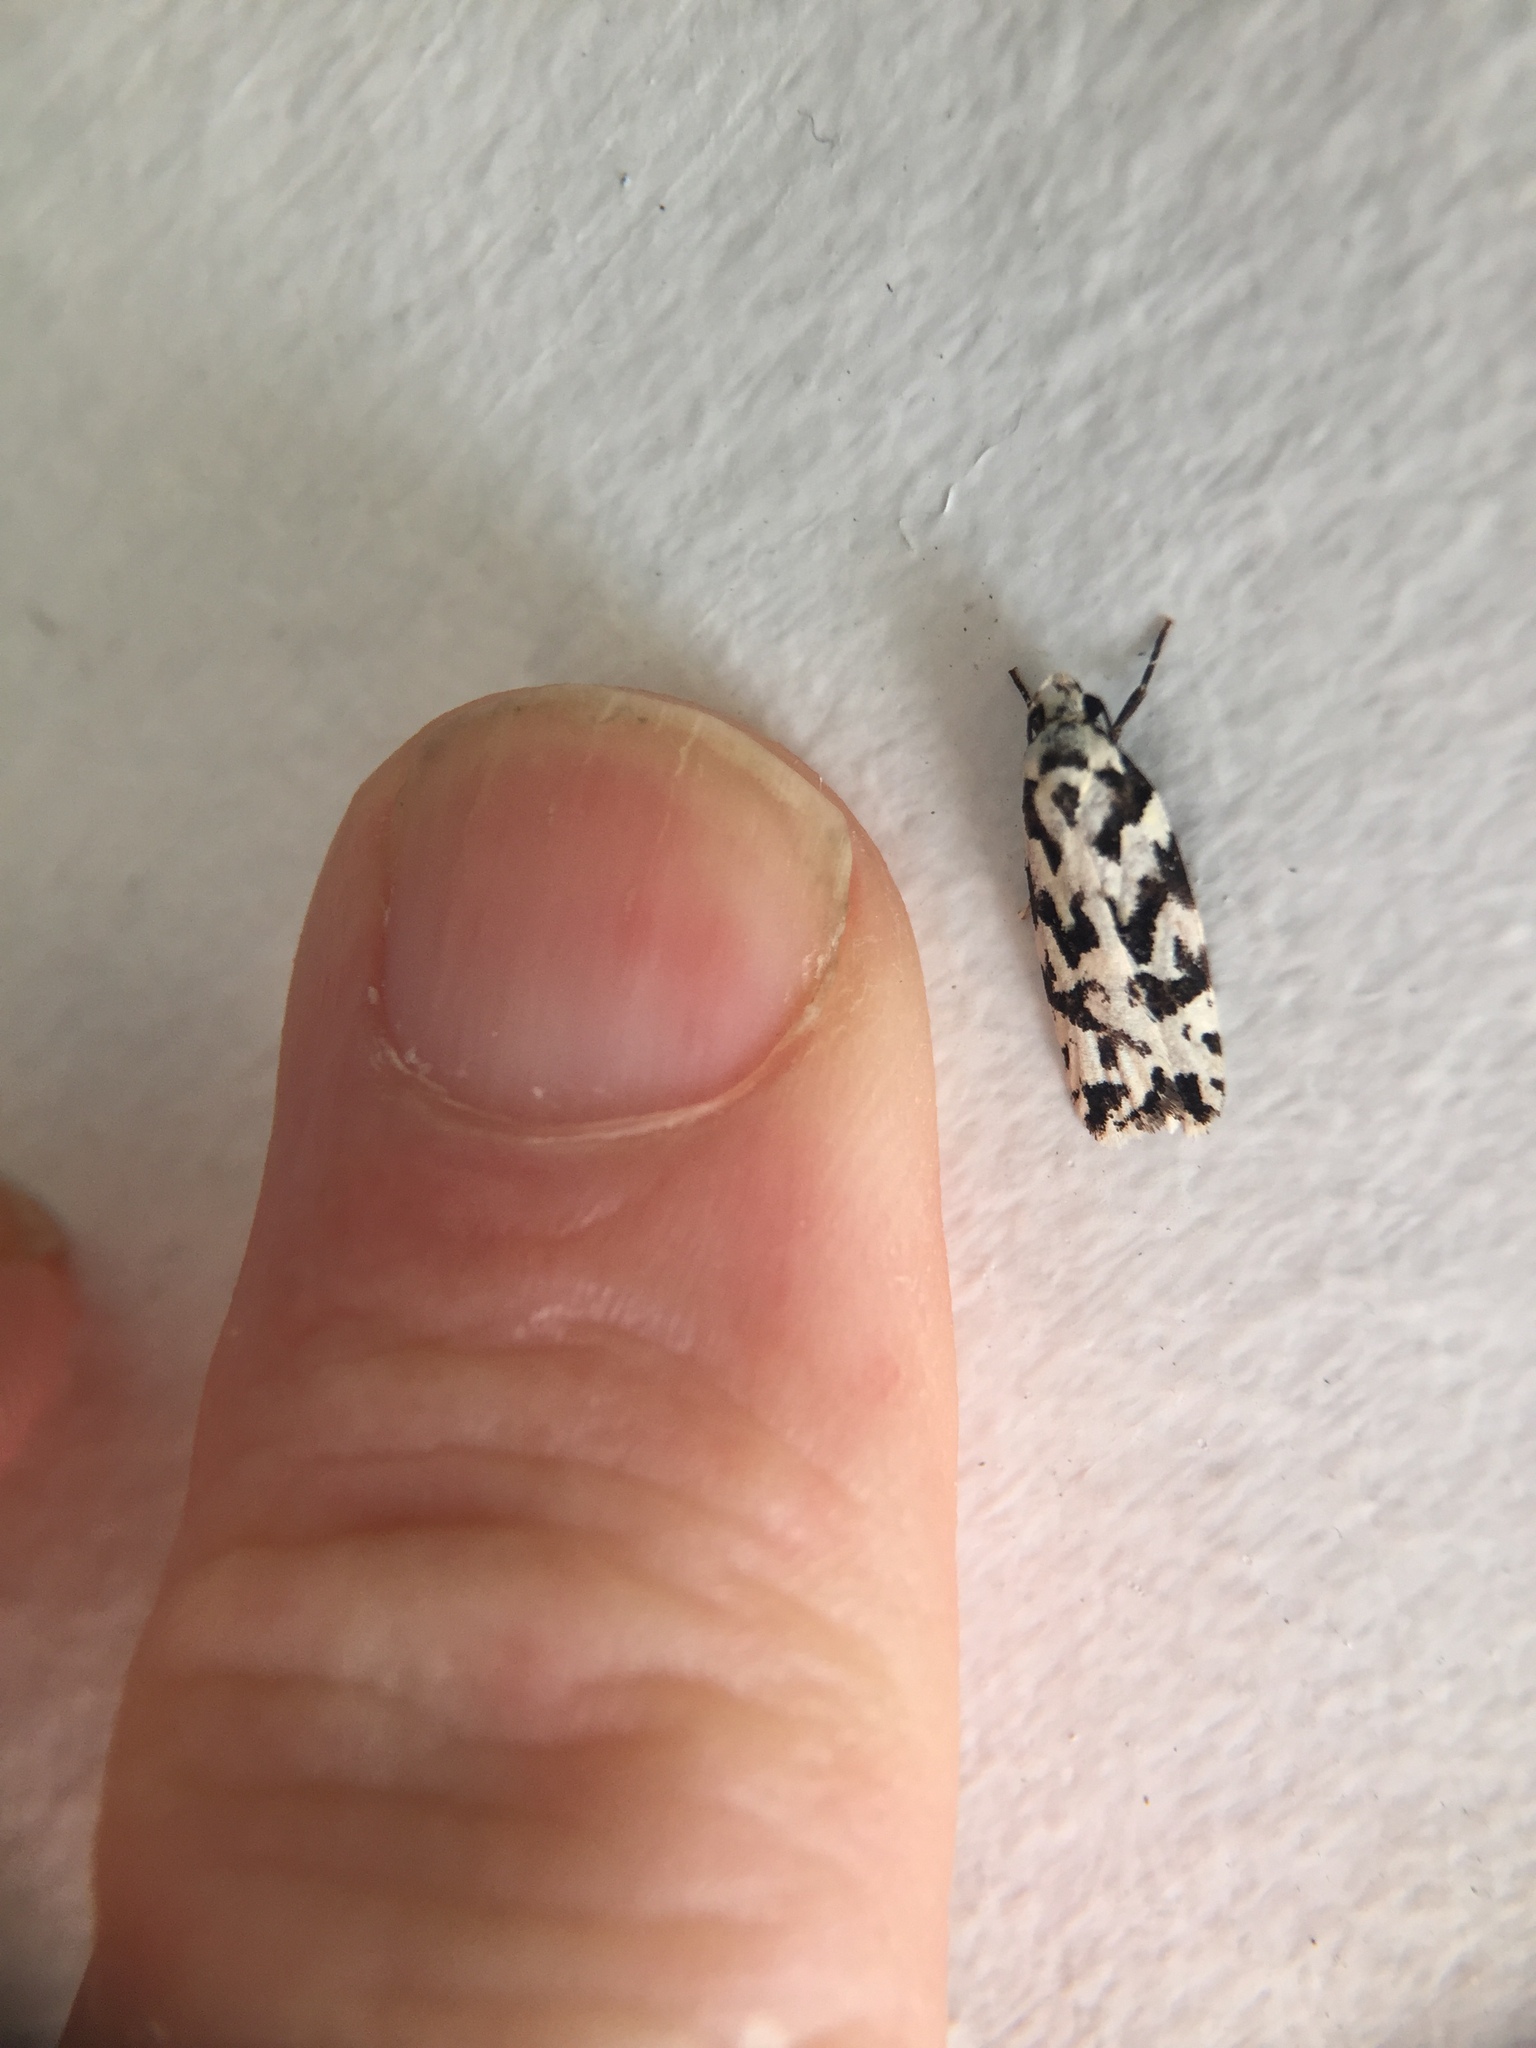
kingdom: Animalia
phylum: Arthropoda
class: Insecta
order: Lepidoptera
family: Oecophoridae
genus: Izatha
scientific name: Izatha
